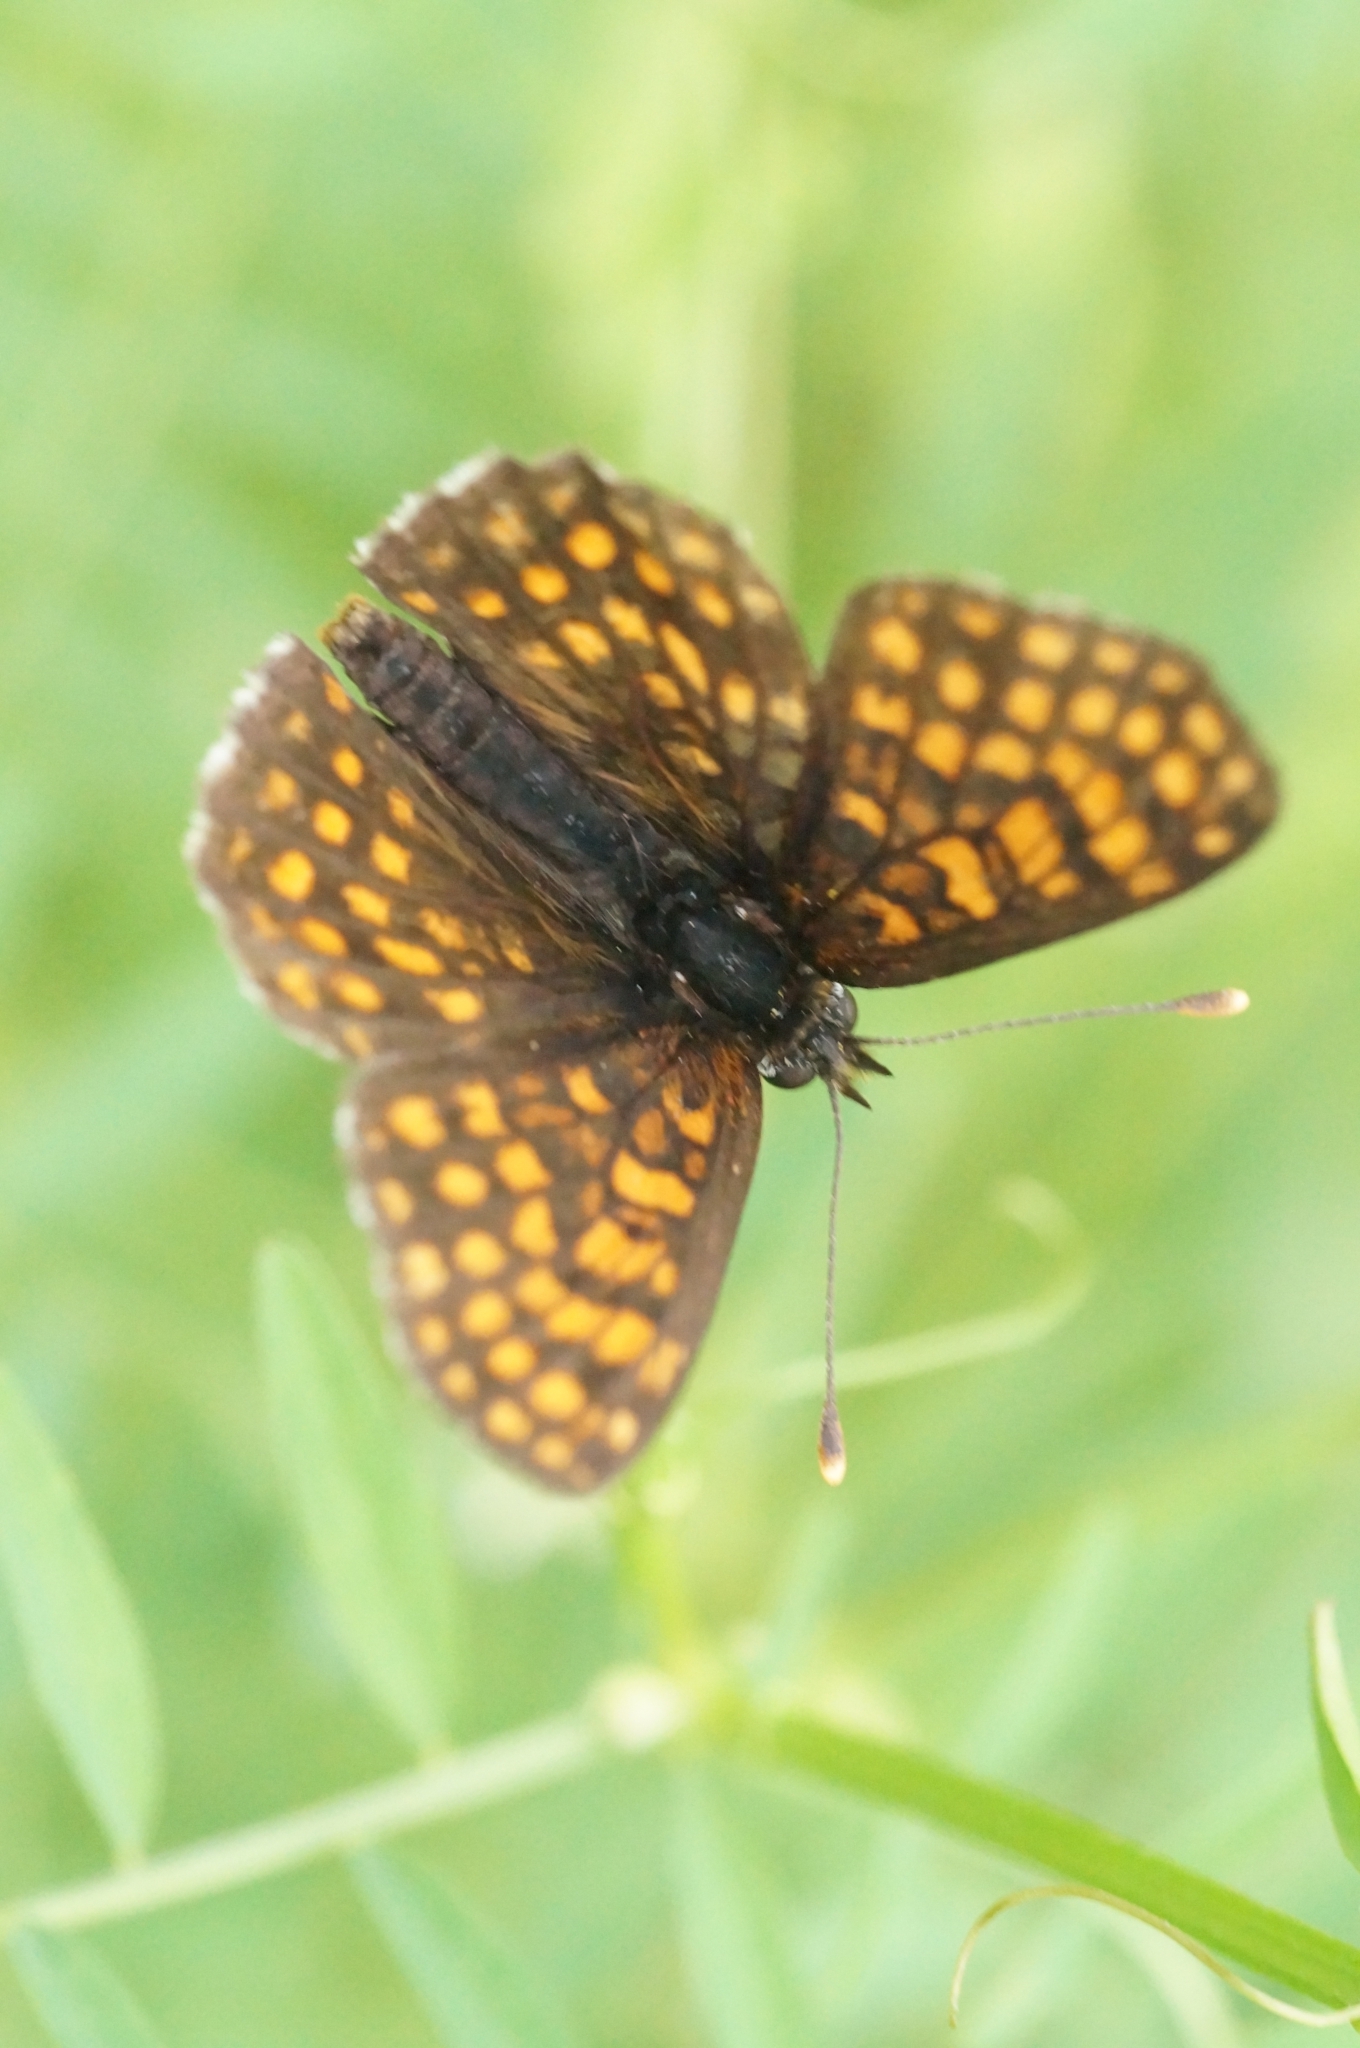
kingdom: Animalia
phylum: Arthropoda
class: Insecta
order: Lepidoptera
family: Nymphalidae
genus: Melitaea
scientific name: Melitaea
